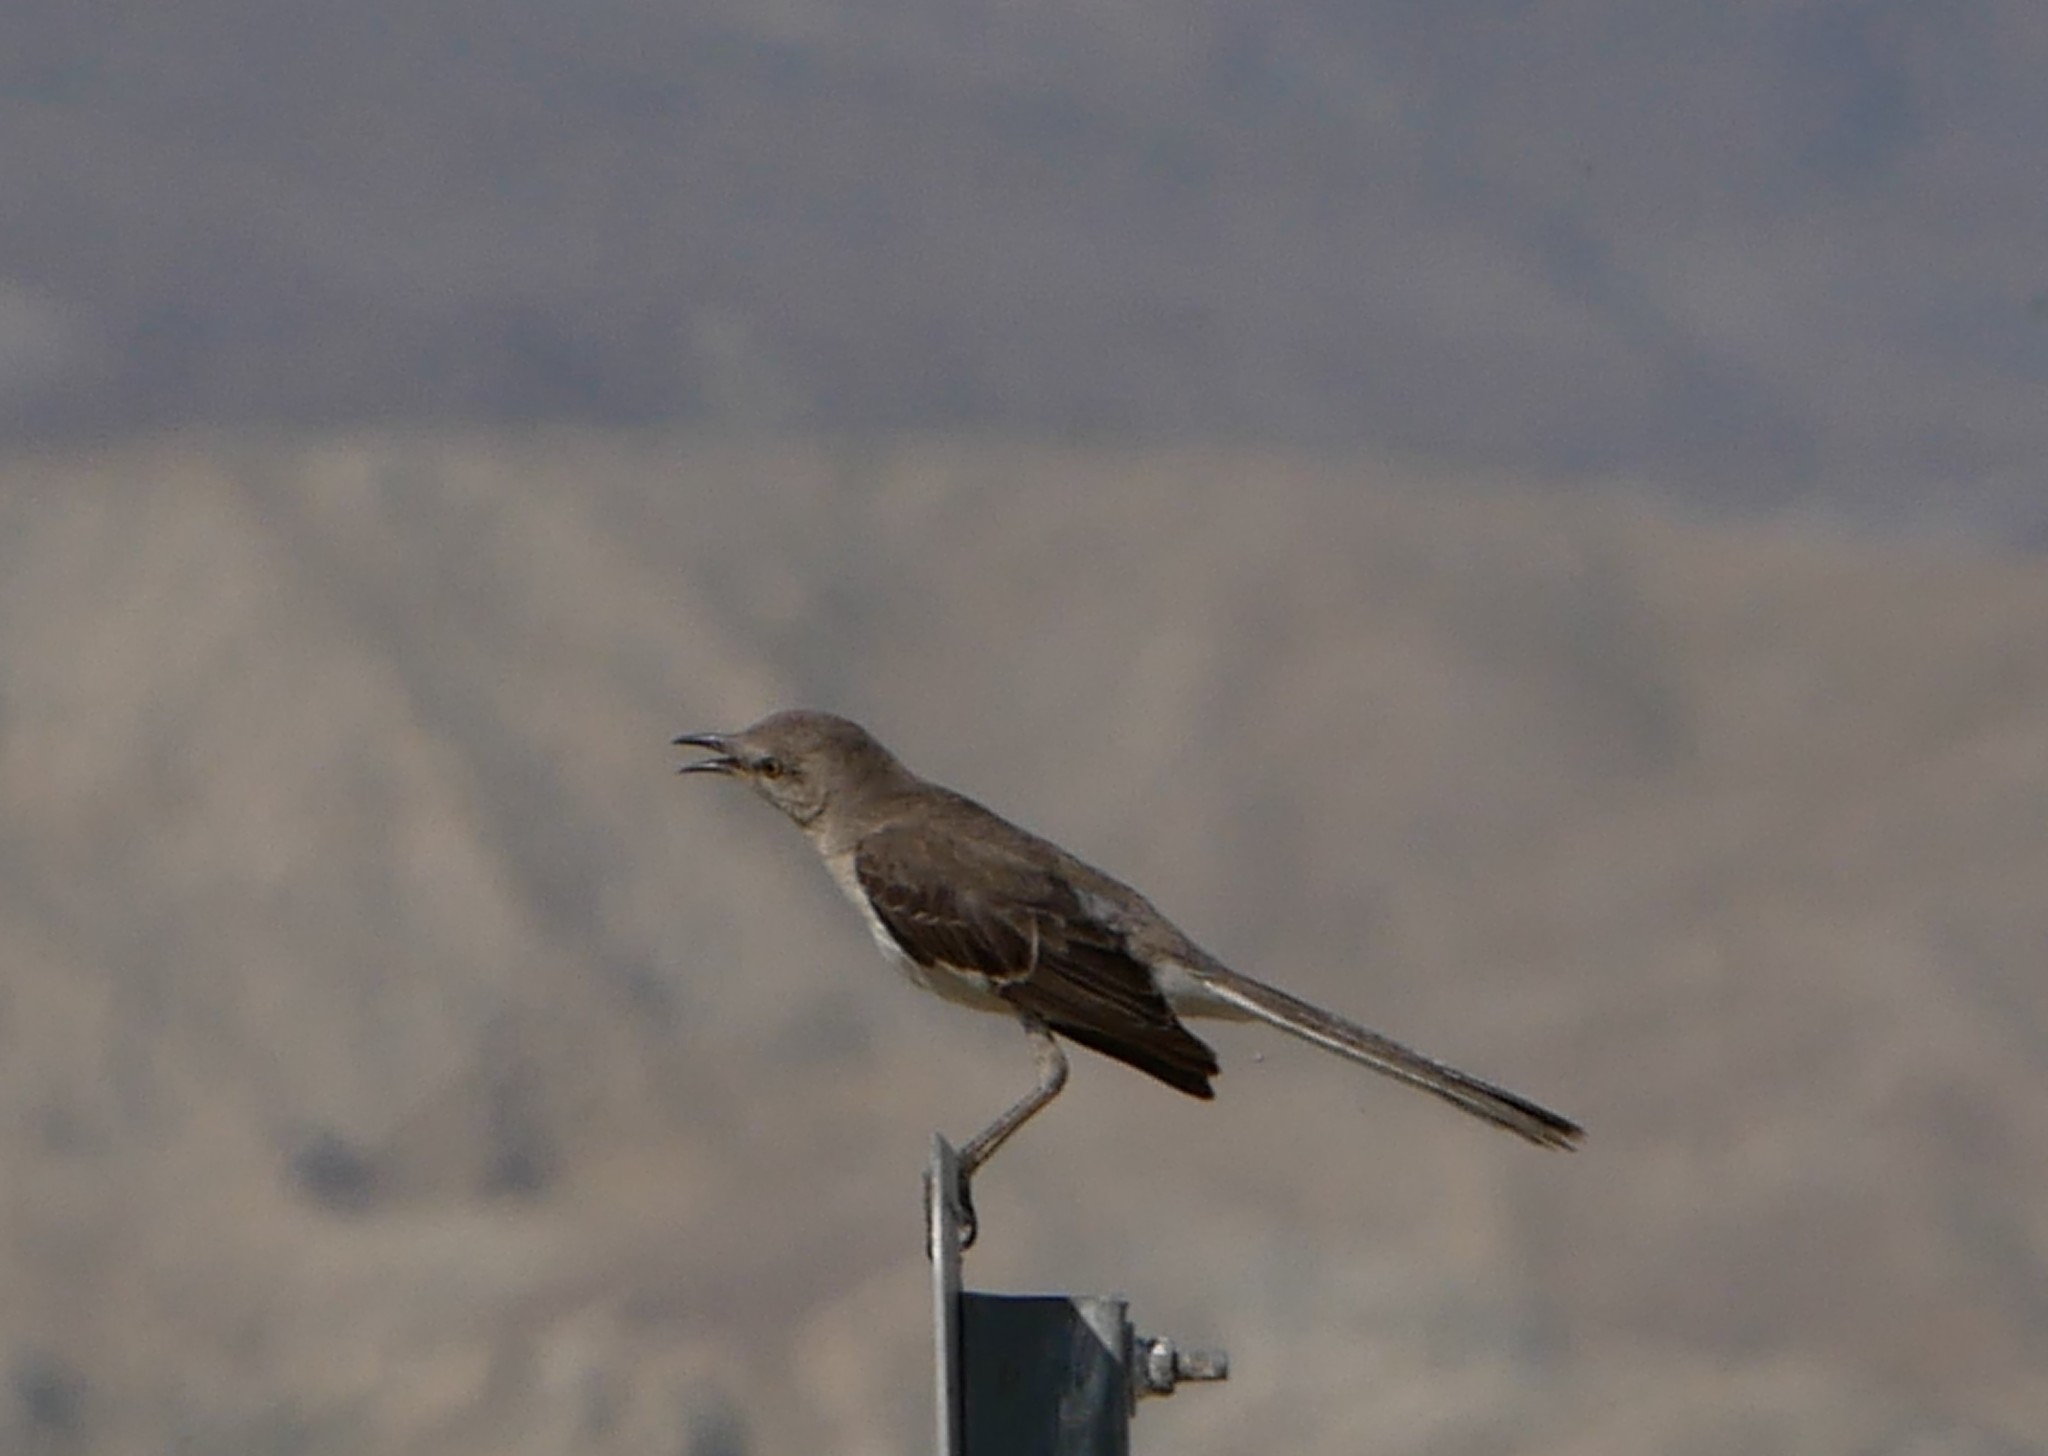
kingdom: Animalia
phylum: Chordata
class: Aves
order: Passeriformes
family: Mimidae
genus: Mimus
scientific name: Mimus polyglottos
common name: Northern mockingbird
